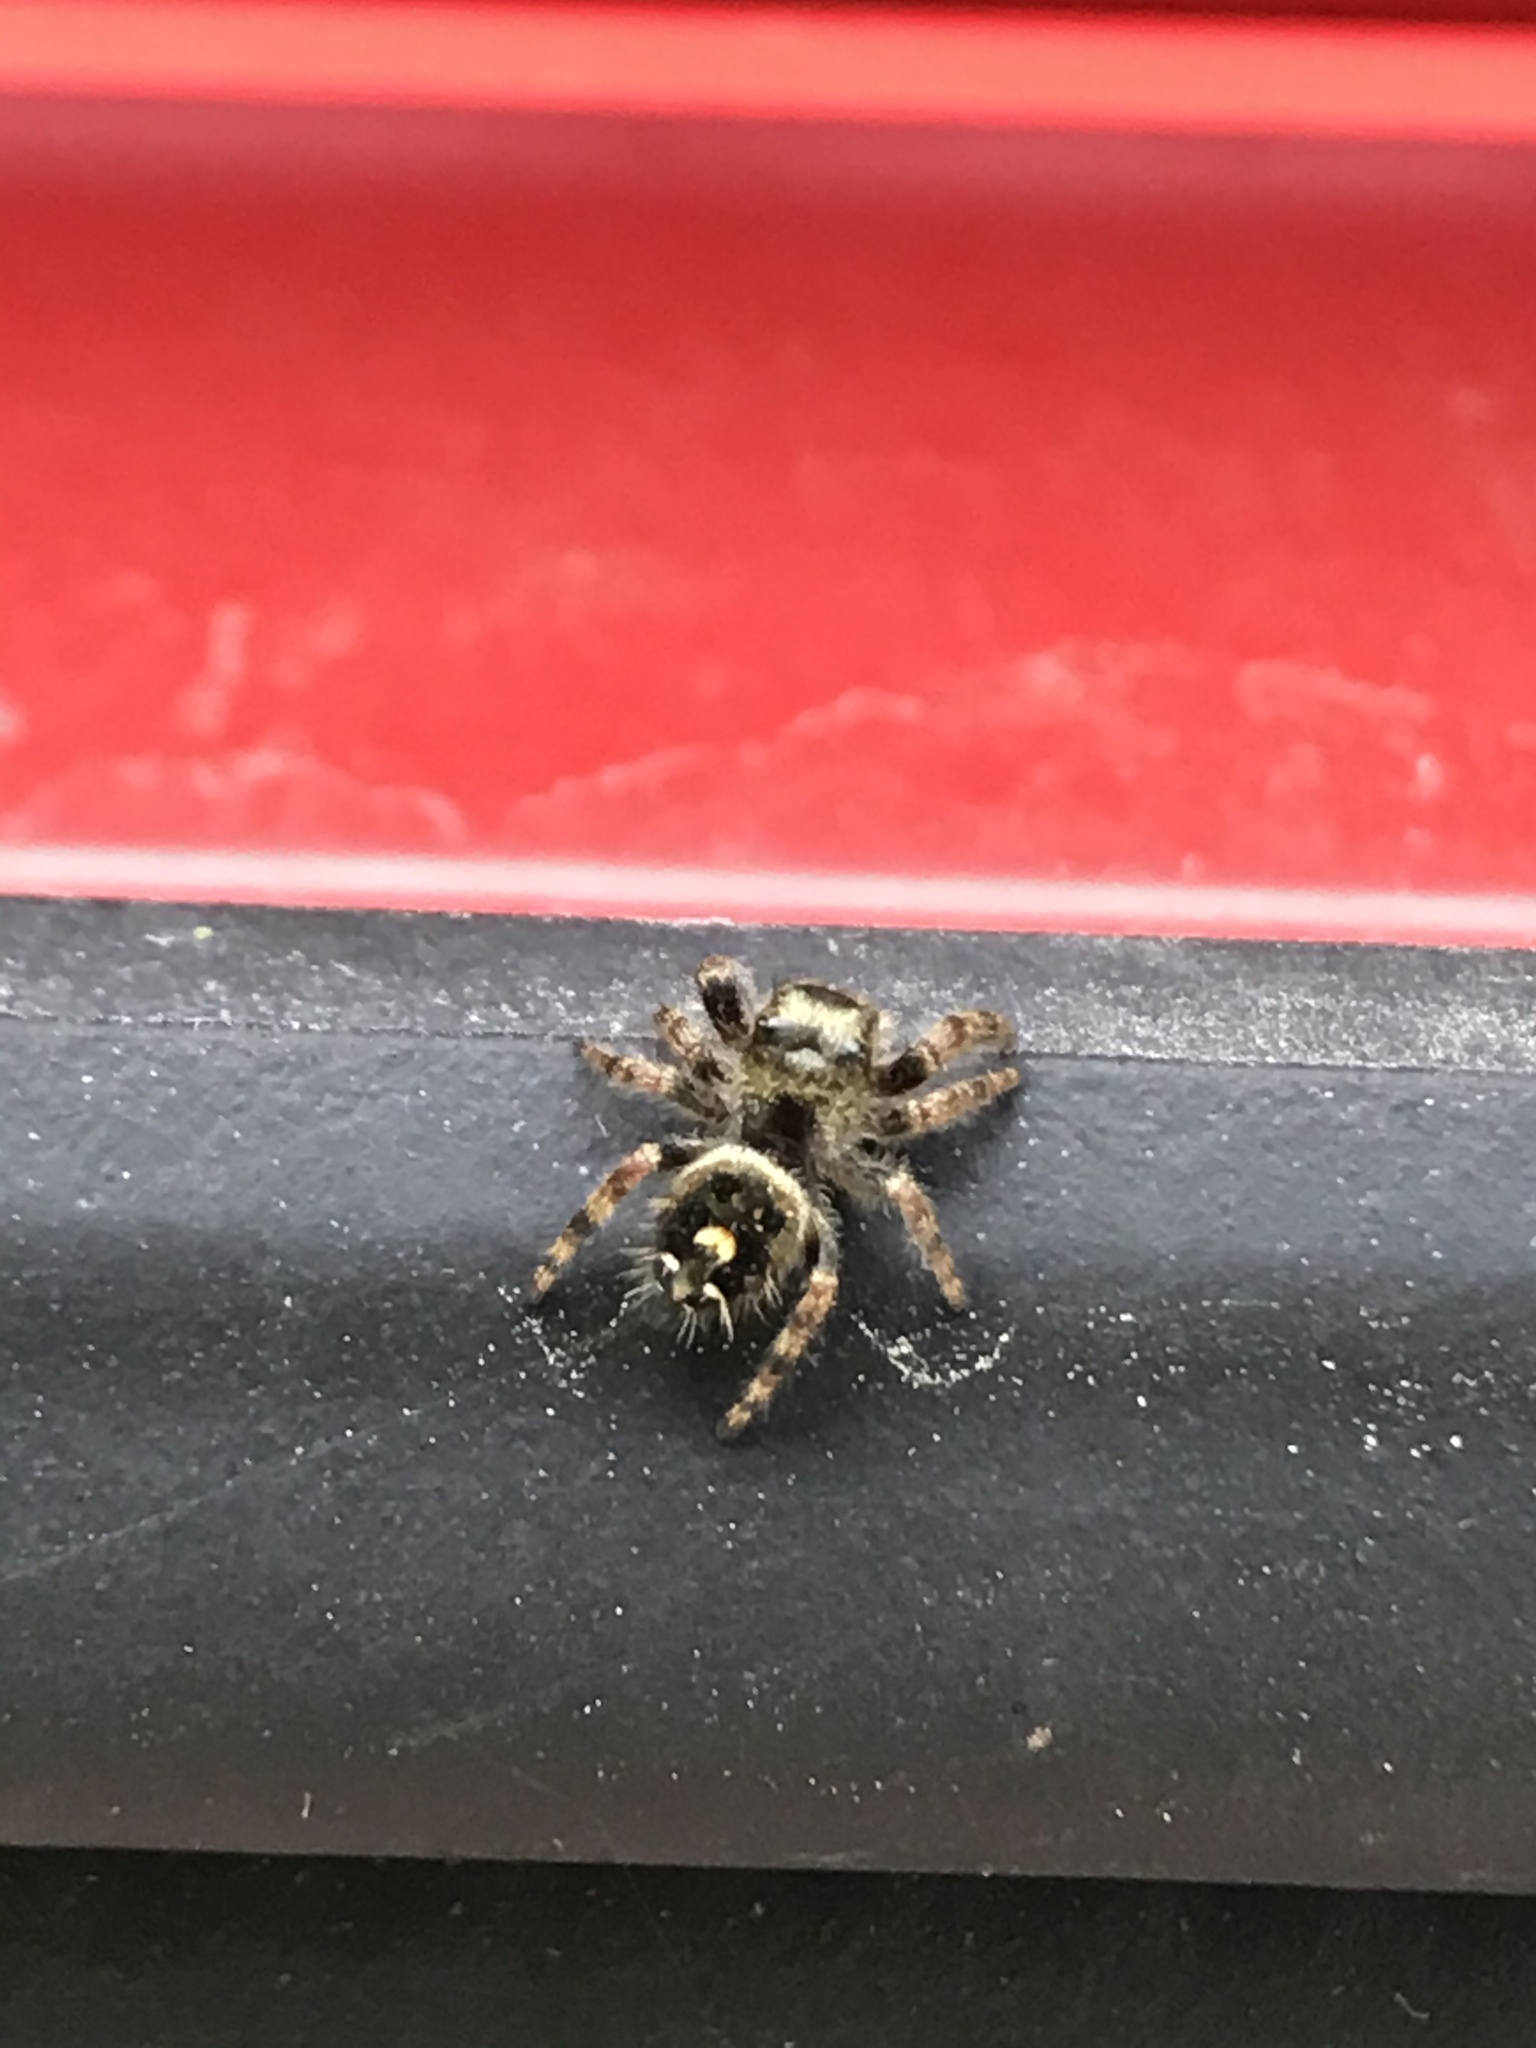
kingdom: Animalia
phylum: Arthropoda
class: Arachnida
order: Araneae
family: Salticidae
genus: Phidippus
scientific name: Phidippus audax
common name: Bold jumper
